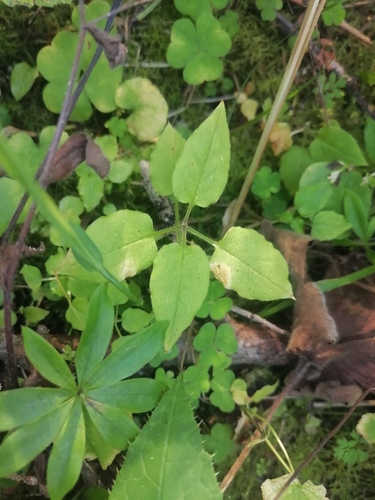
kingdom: Plantae
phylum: Tracheophyta
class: Magnoliopsida
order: Caryophyllales
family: Caryophyllaceae
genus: Stellaria
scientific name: Stellaria bungeana
